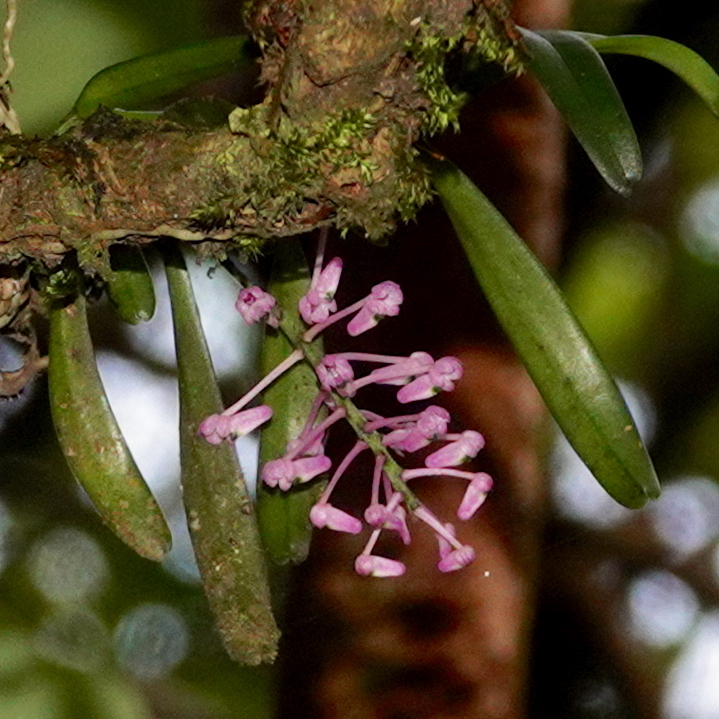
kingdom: Plantae
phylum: Tracheophyta
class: Liliopsida
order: Asparagales
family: Orchidaceae
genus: Robiquetia
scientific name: Robiquetia rosea
